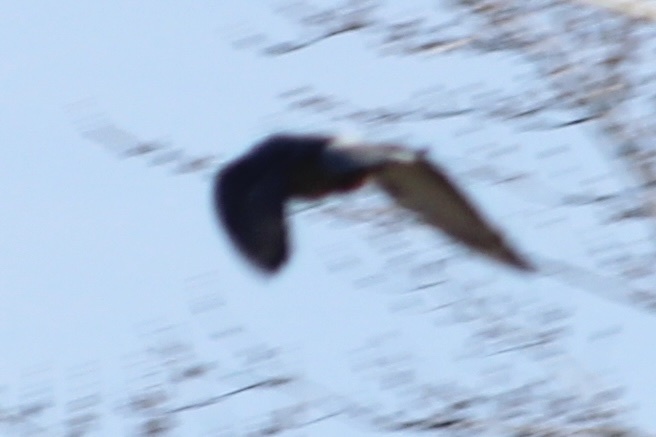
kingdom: Animalia
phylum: Chordata
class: Aves
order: Columbiformes
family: Columbidae
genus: Columba
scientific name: Columba livia
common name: Rock pigeon
